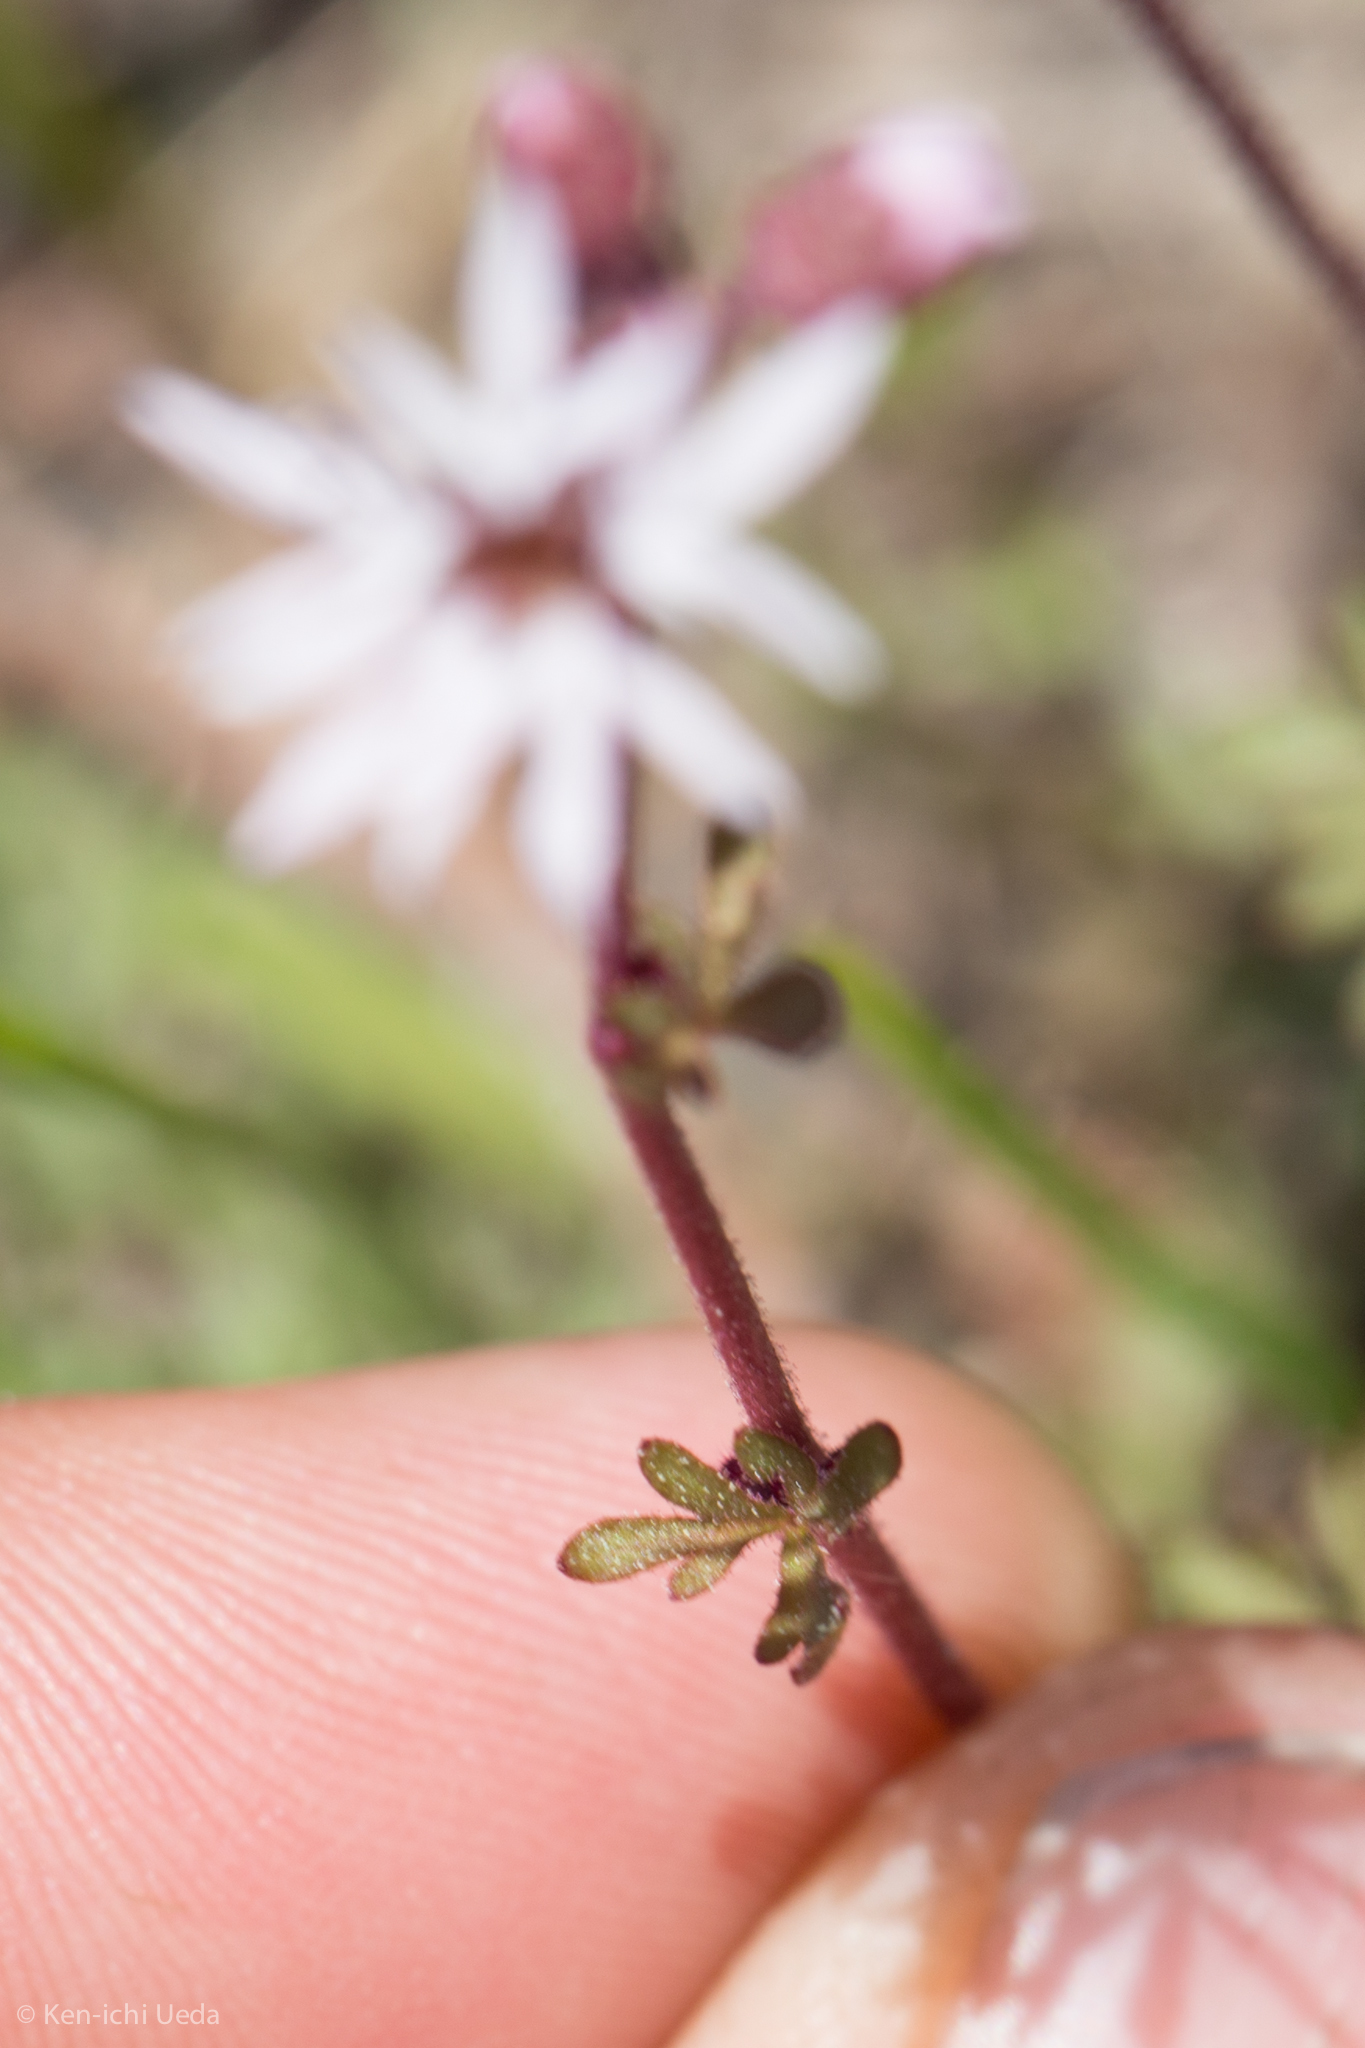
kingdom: Plantae
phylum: Tracheophyta
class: Magnoliopsida
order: Saxifragales
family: Saxifragaceae
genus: Lithophragma
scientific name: Lithophragma glabrum
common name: Bulbous prairie-star
